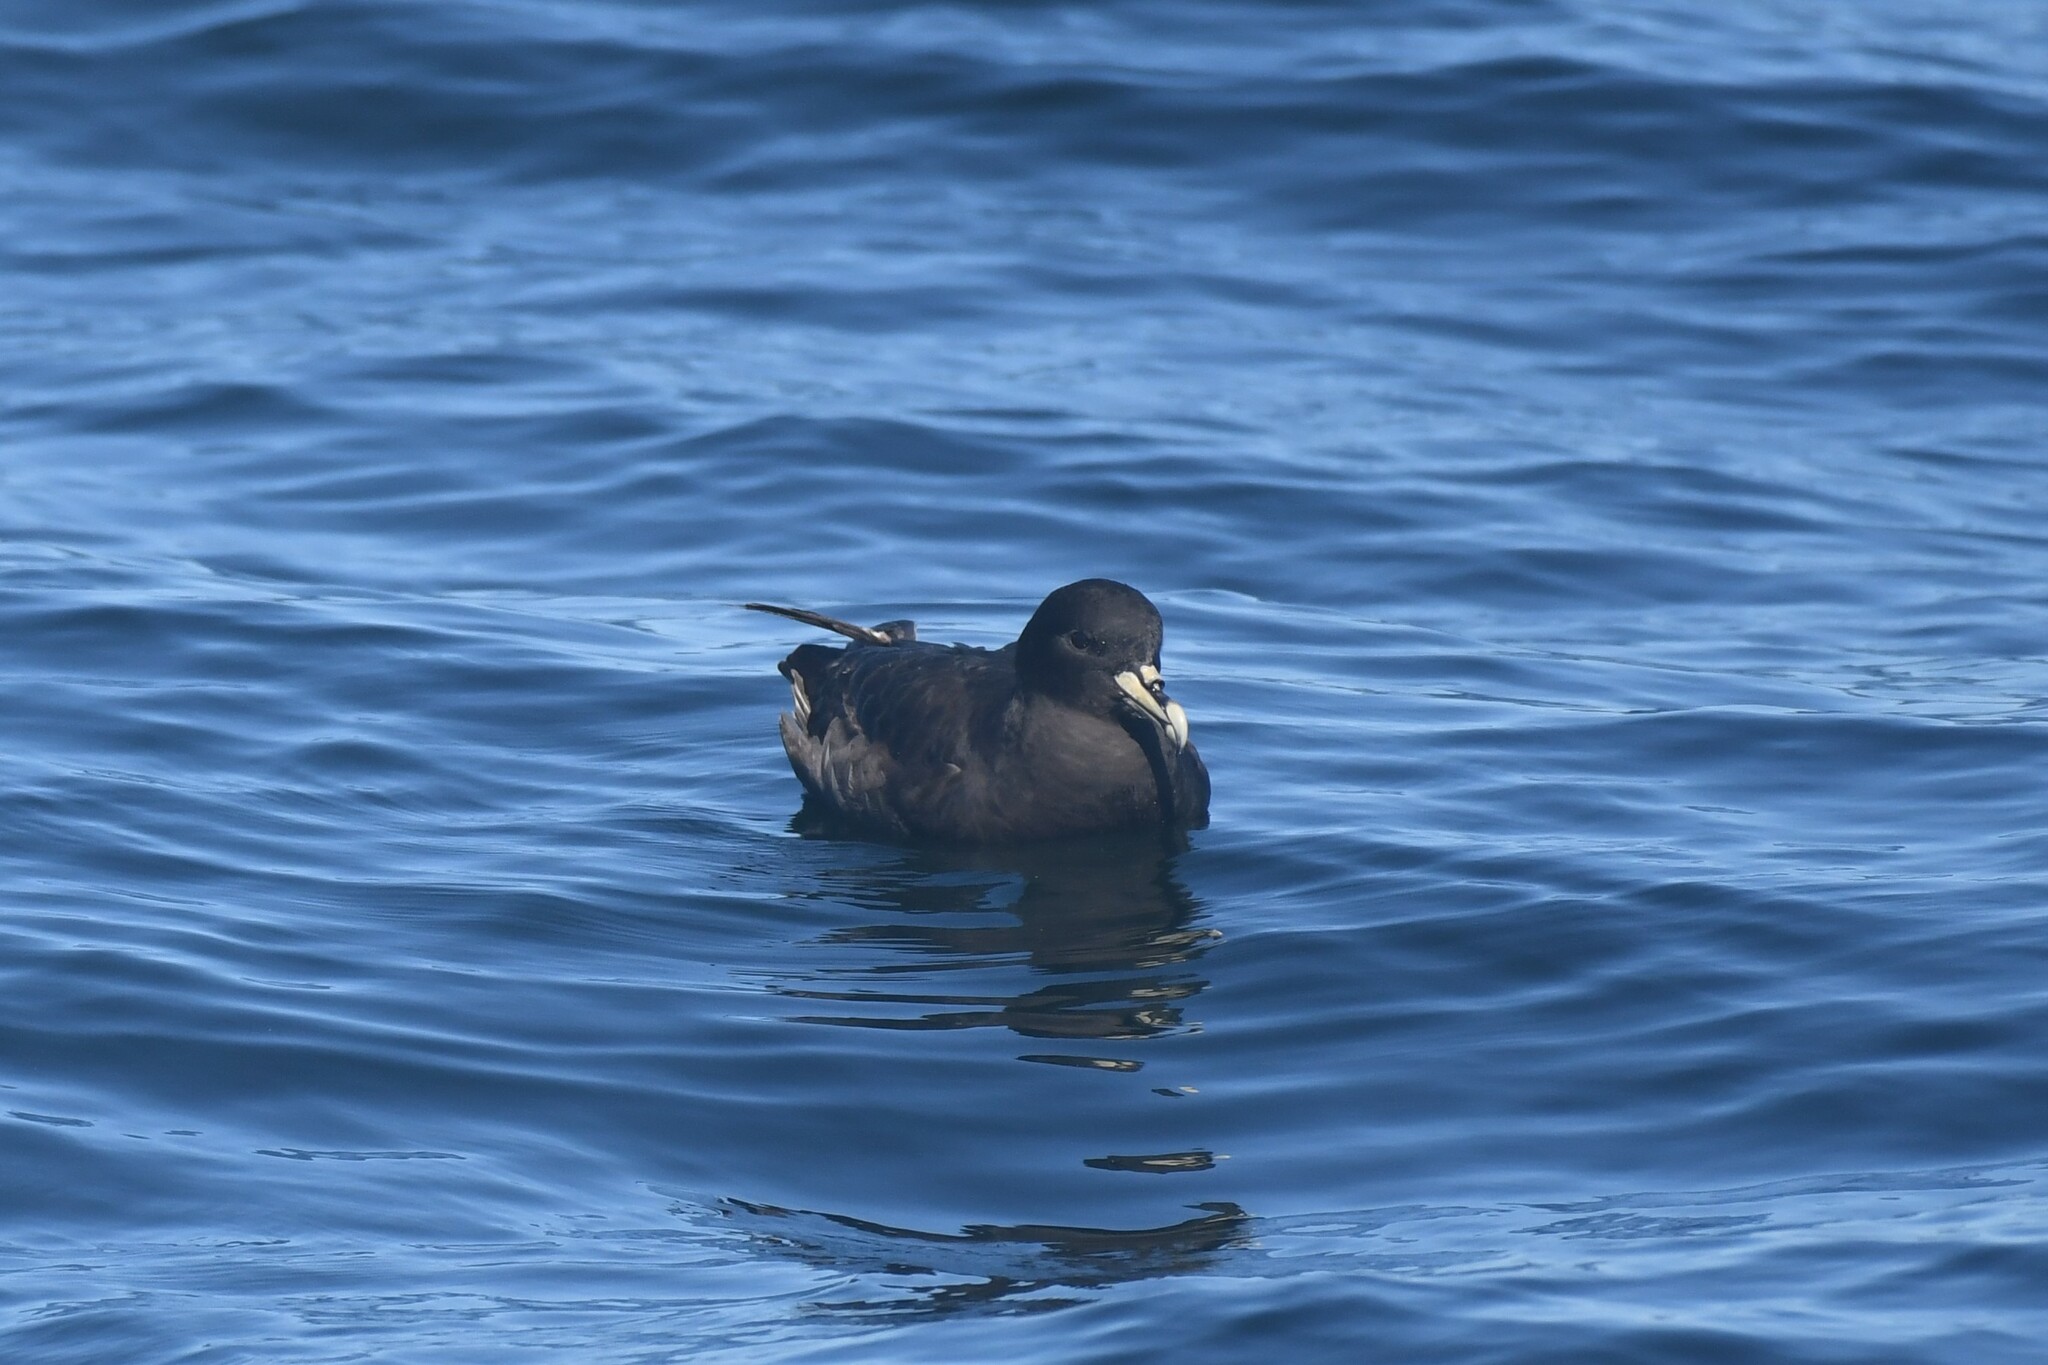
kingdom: Animalia
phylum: Chordata
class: Aves
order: Procellariiformes
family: Procellariidae
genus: Procellaria
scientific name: Procellaria aequinoctialis
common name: White-chinned petrel
